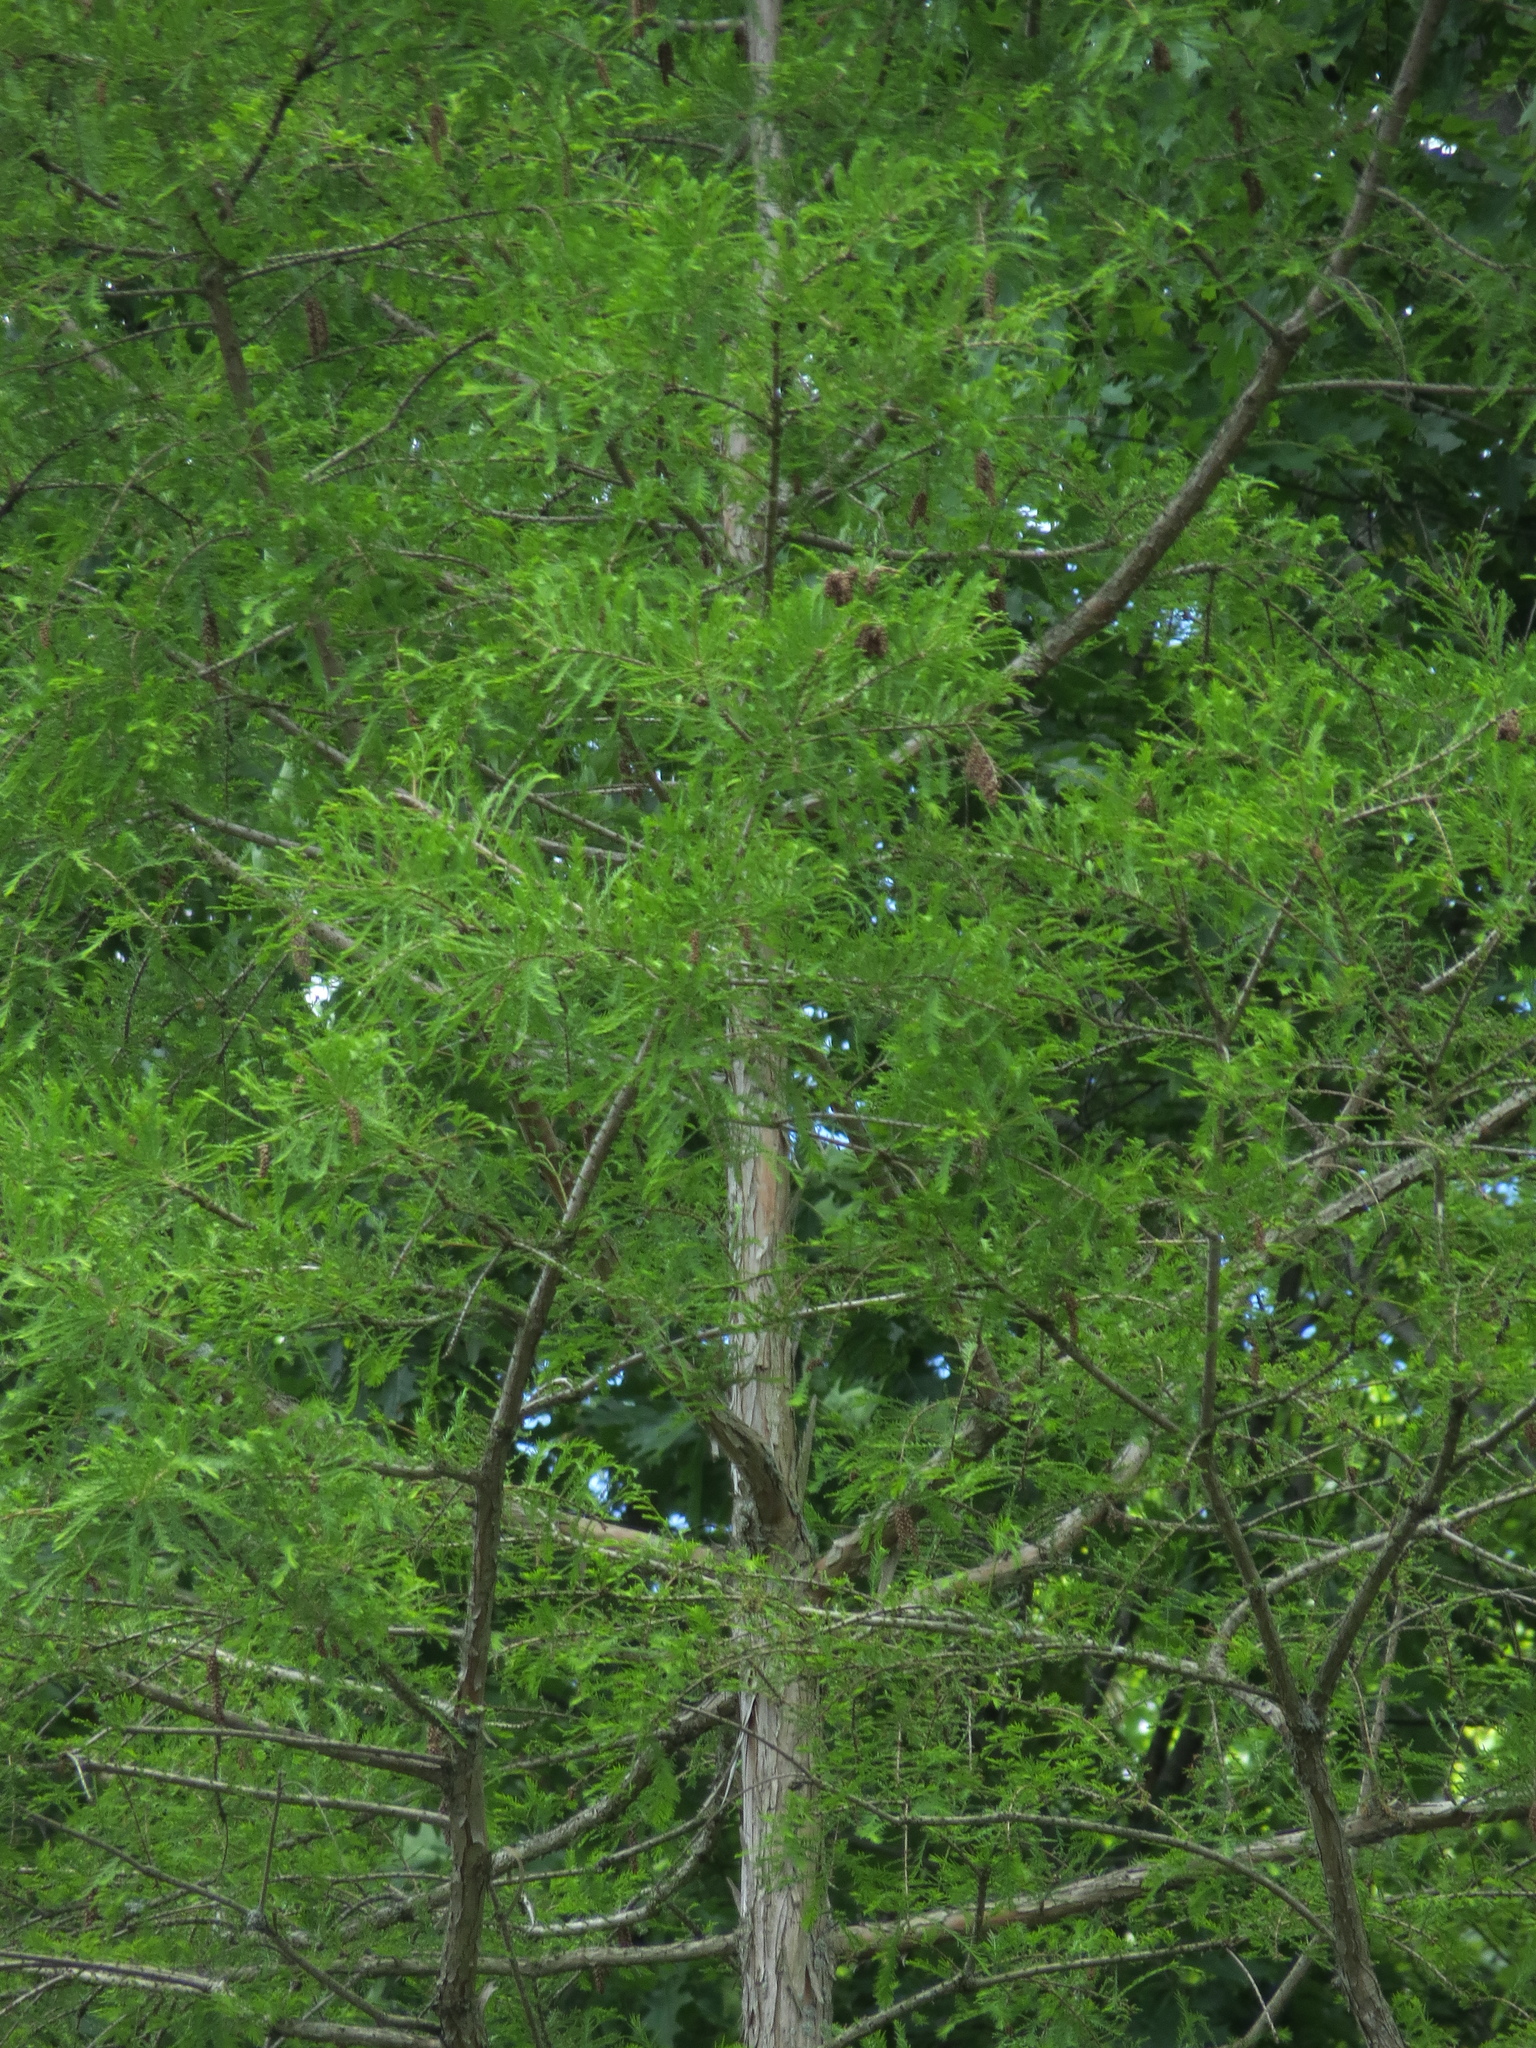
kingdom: Plantae
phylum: Tracheophyta
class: Pinopsida
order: Pinales
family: Cupressaceae
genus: Taxodium
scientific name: Taxodium distichum
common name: Bald cypress
